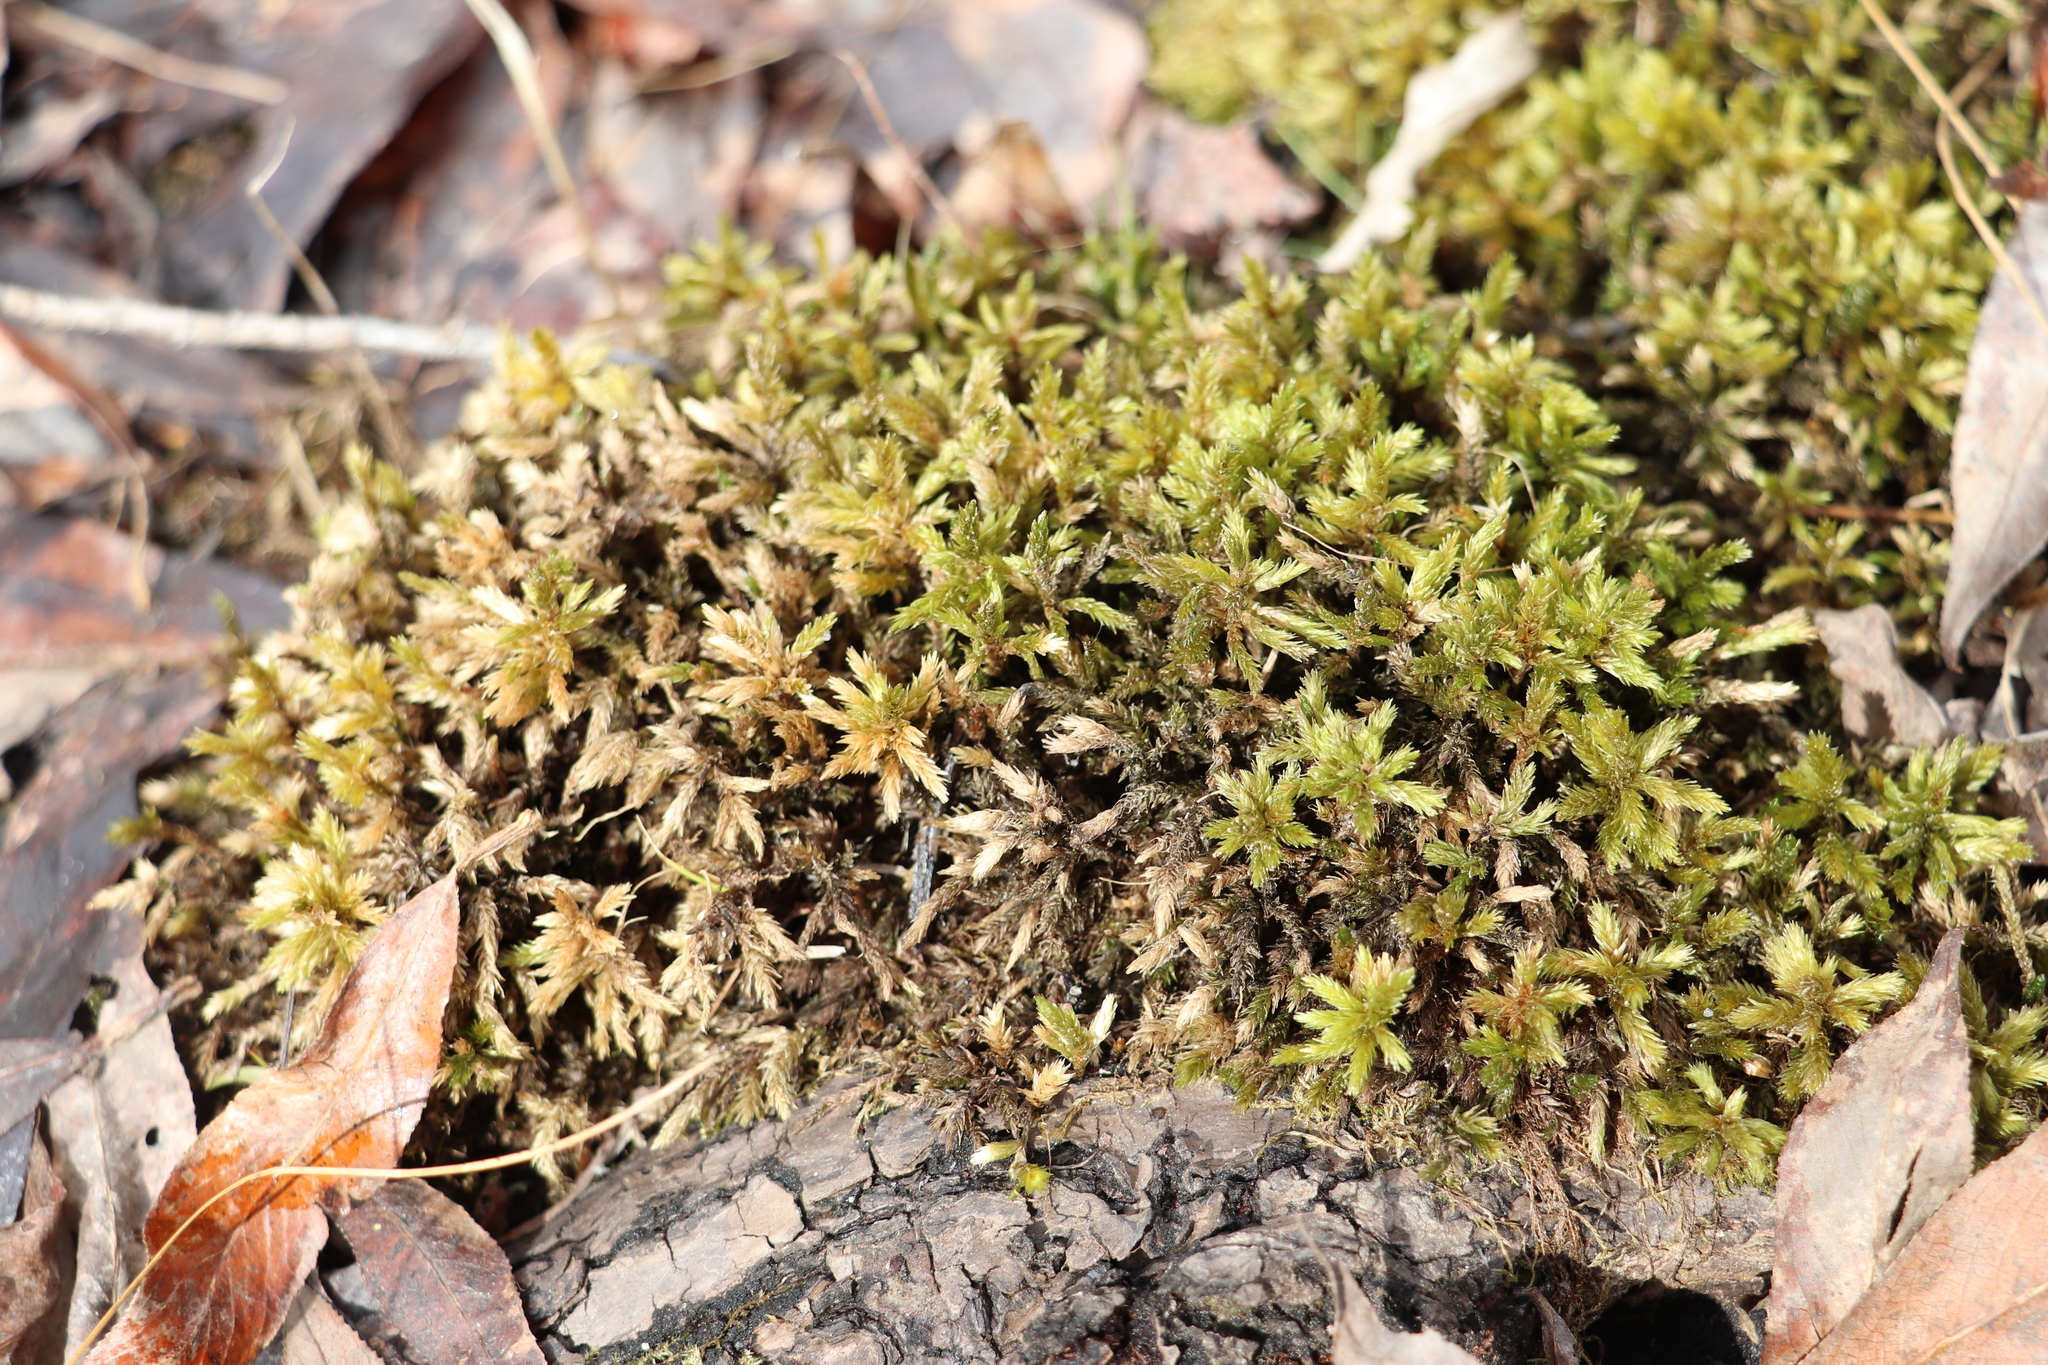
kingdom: Plantae
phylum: Bryophyta
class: Bryopsida
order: Hypnales
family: Climaciaceae
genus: Climacium
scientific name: Climacium dendroides
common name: Northern tree moss
